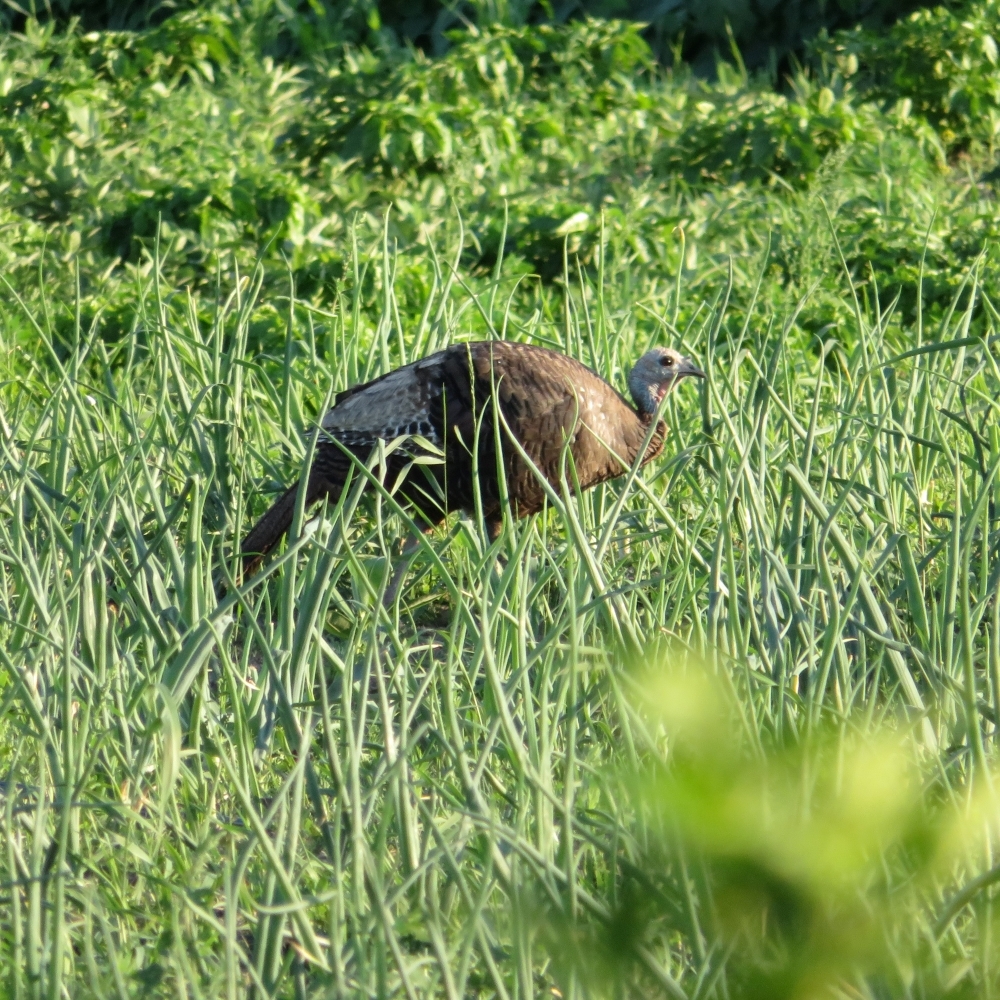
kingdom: Animalia
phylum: Chordata
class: Aves
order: Galliformes
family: Phasianidae
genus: Meleagris
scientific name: Meleagris gallopavo
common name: Wild turkey
